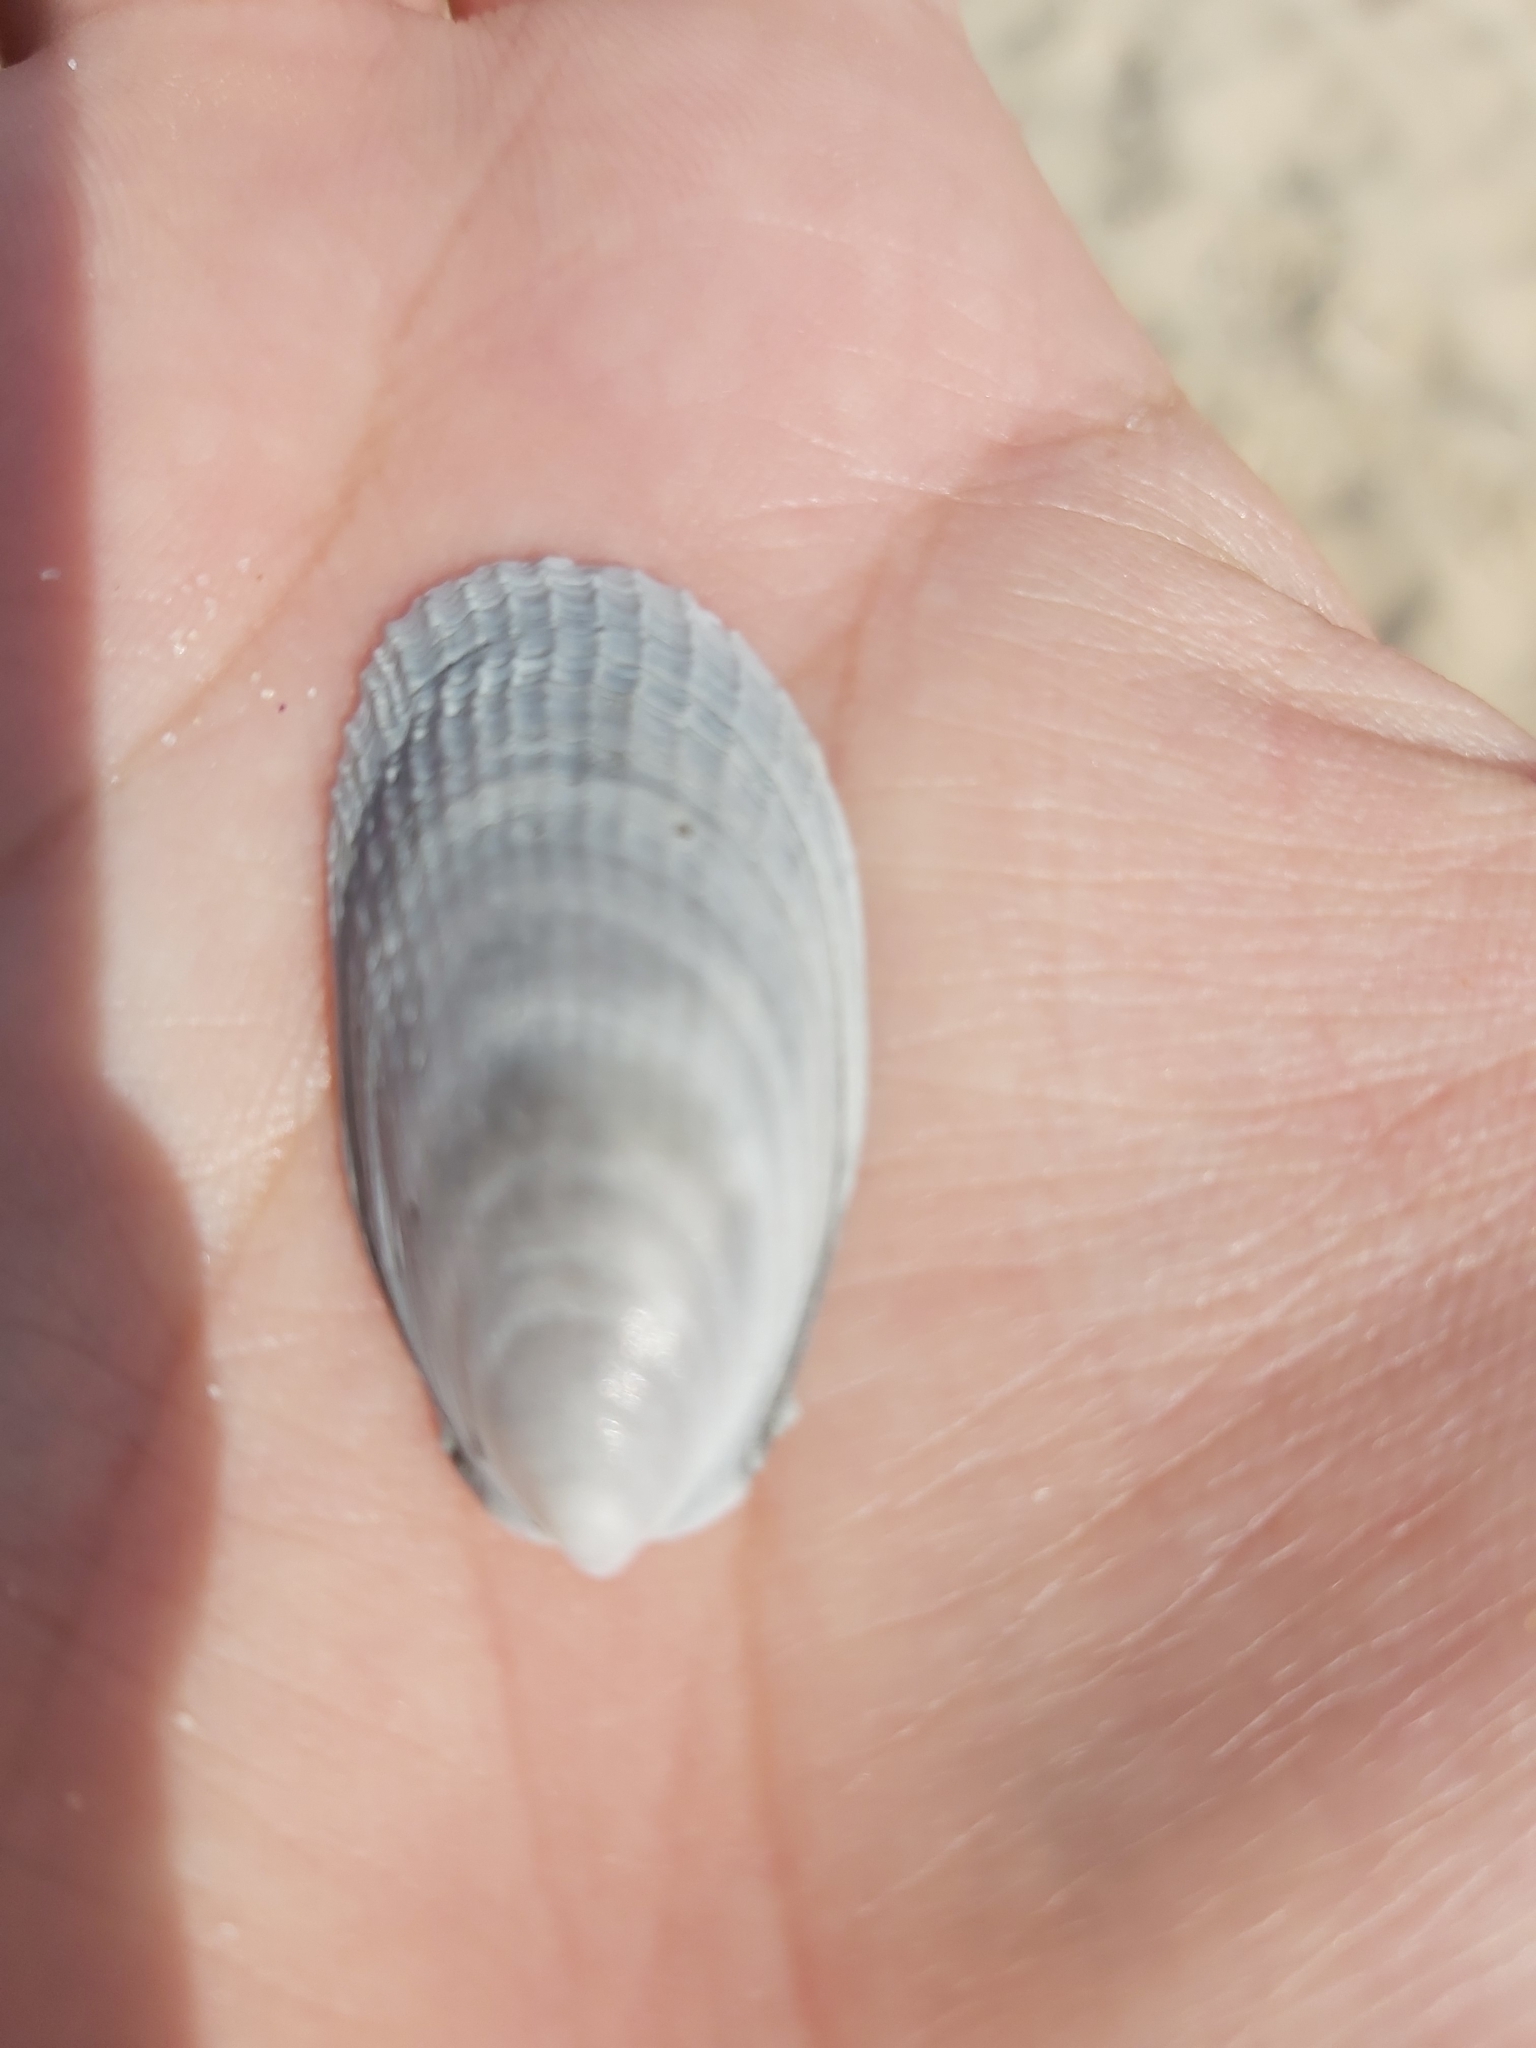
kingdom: Animalia
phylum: Mollusca
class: Bivalvia
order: Limida
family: Limidae
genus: Limatula
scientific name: Limatula strangei
